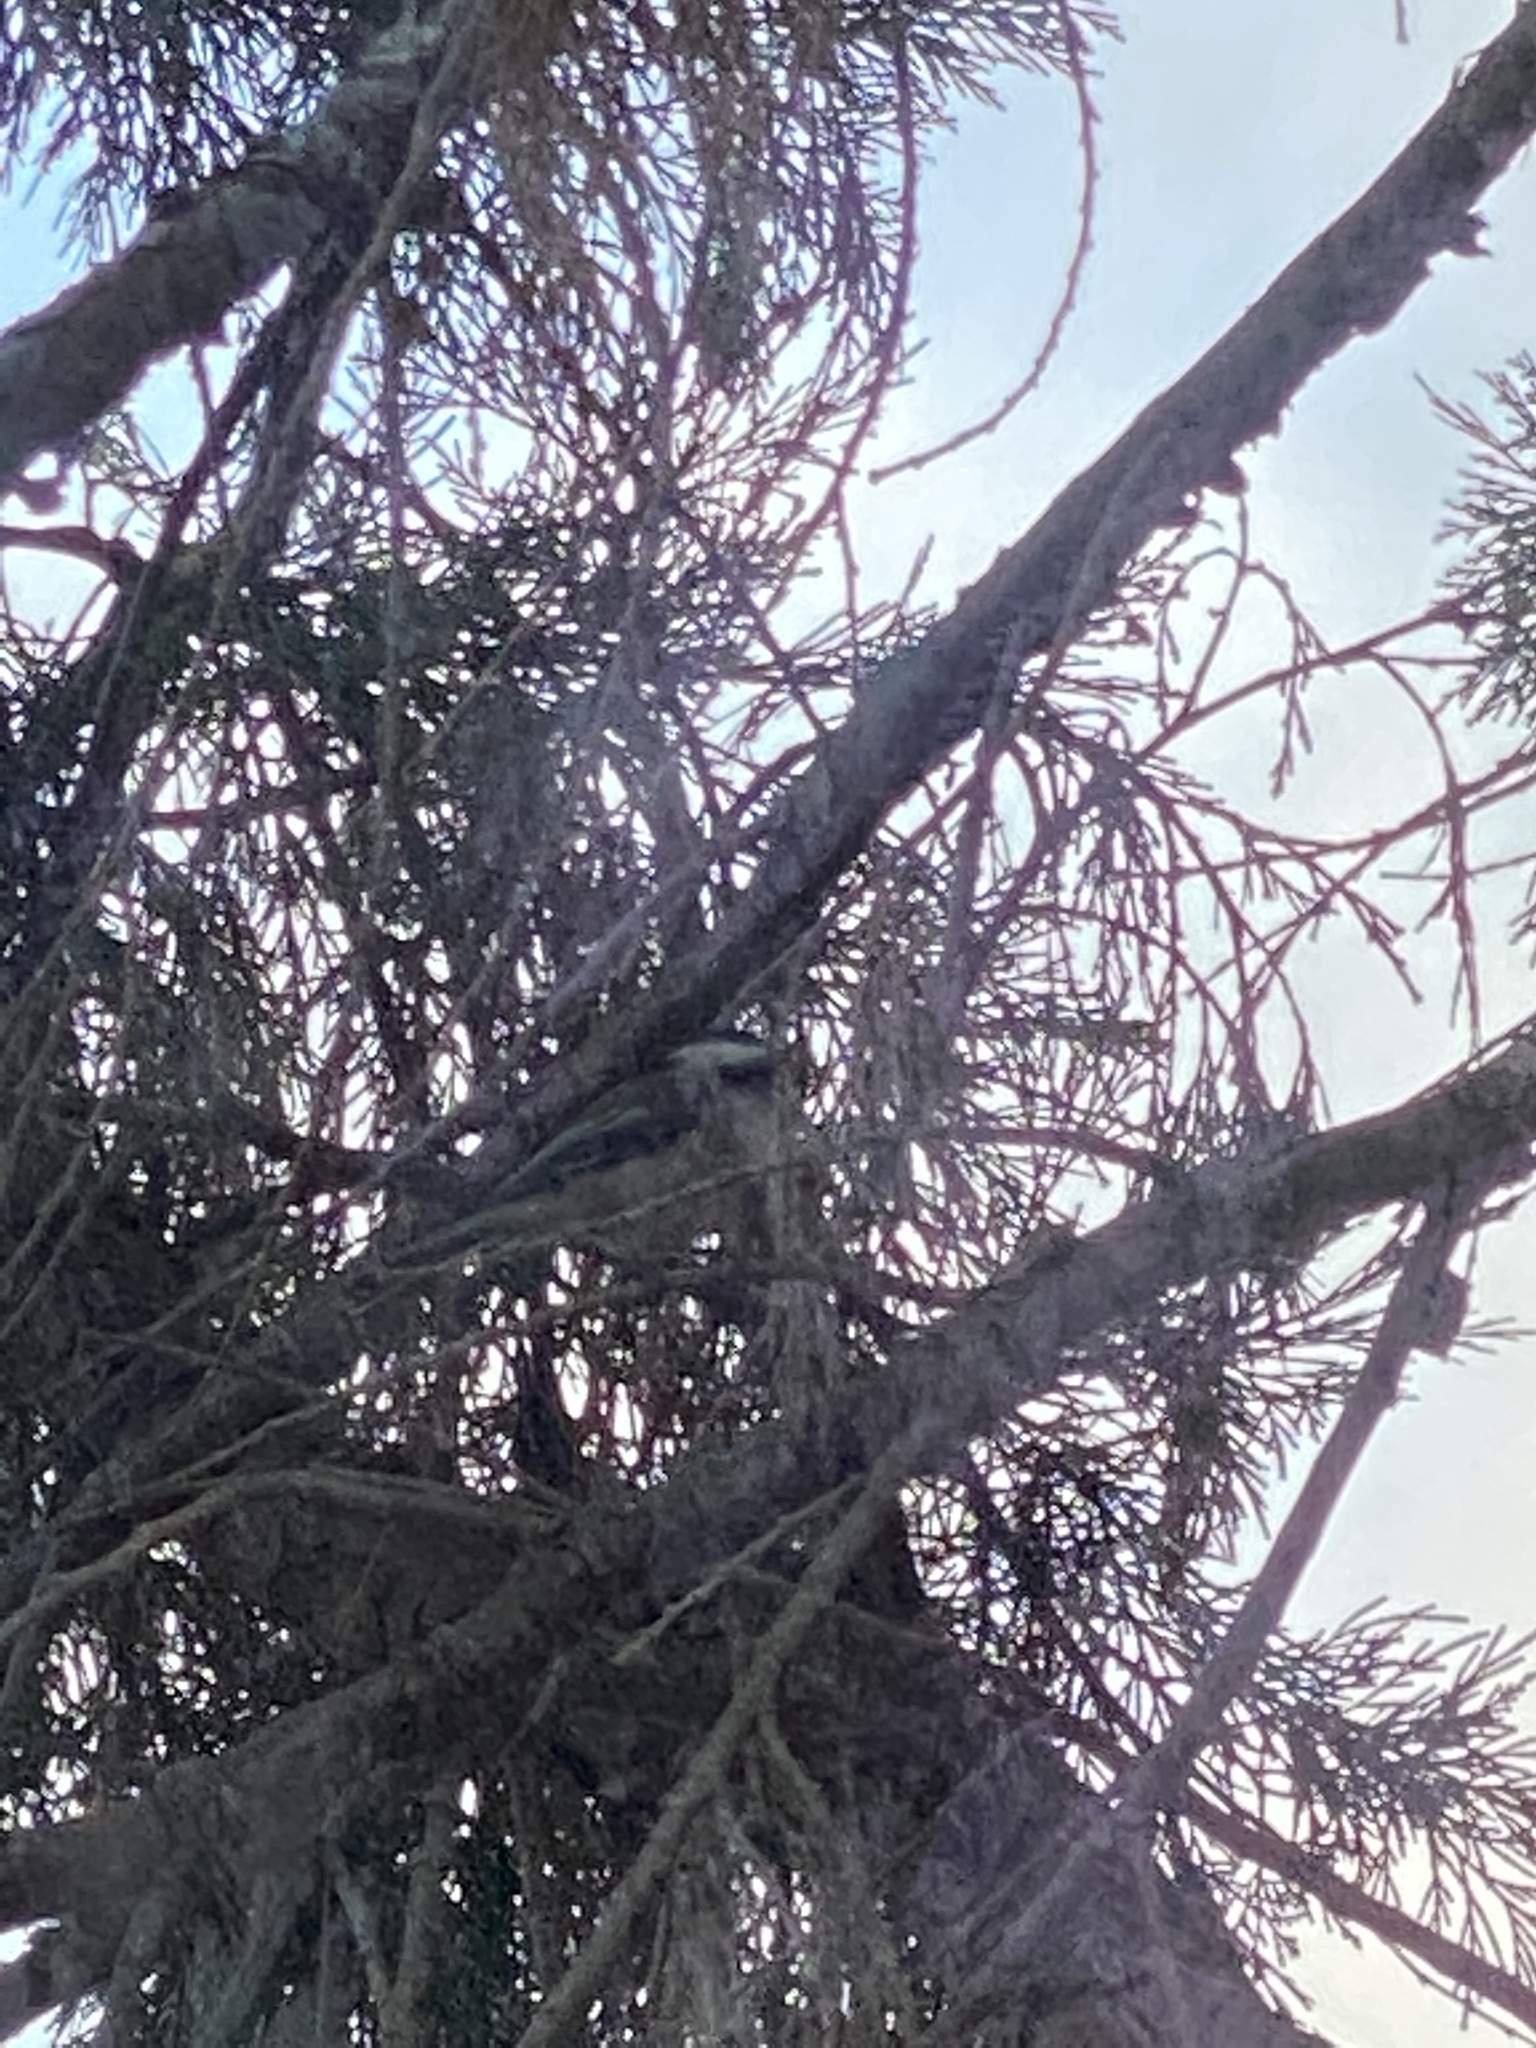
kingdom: Animalia
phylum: Chordata
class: Aves
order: Passeriformes
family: Paridae
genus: Poecile
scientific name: Poecile atricapillus
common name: Black-capped chickadee
